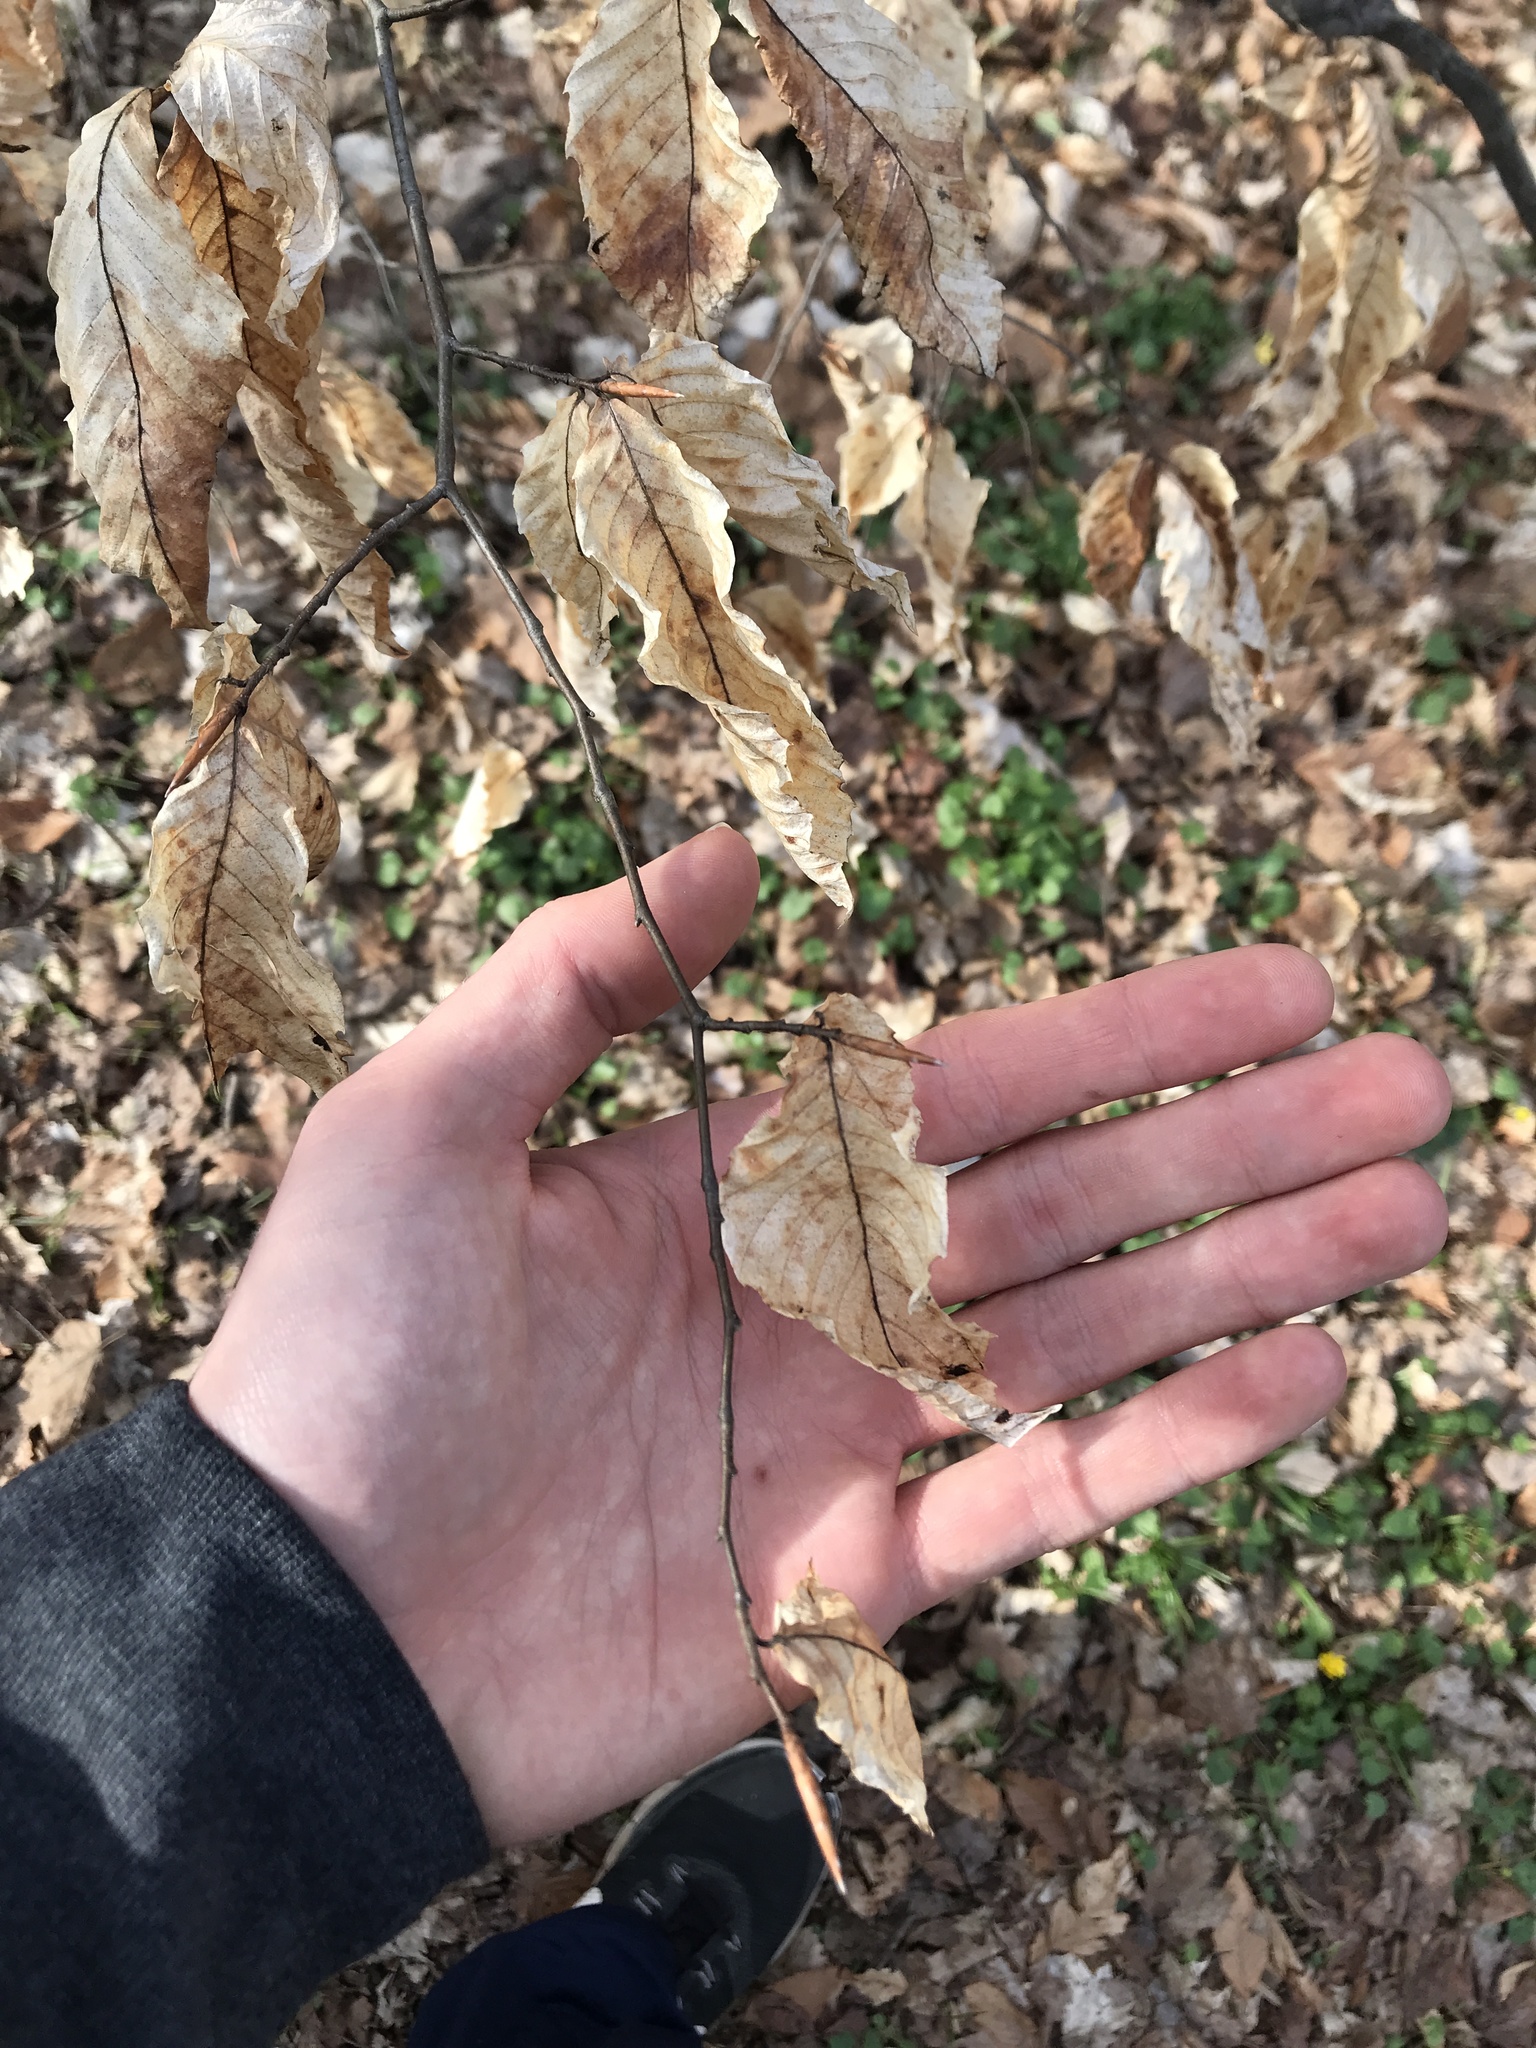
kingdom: Plantae
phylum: Tracheophyta
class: Magnoliopsida
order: Fagales
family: Fagaceae
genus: Fagus
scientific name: Fagus grandifolia
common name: American beech
